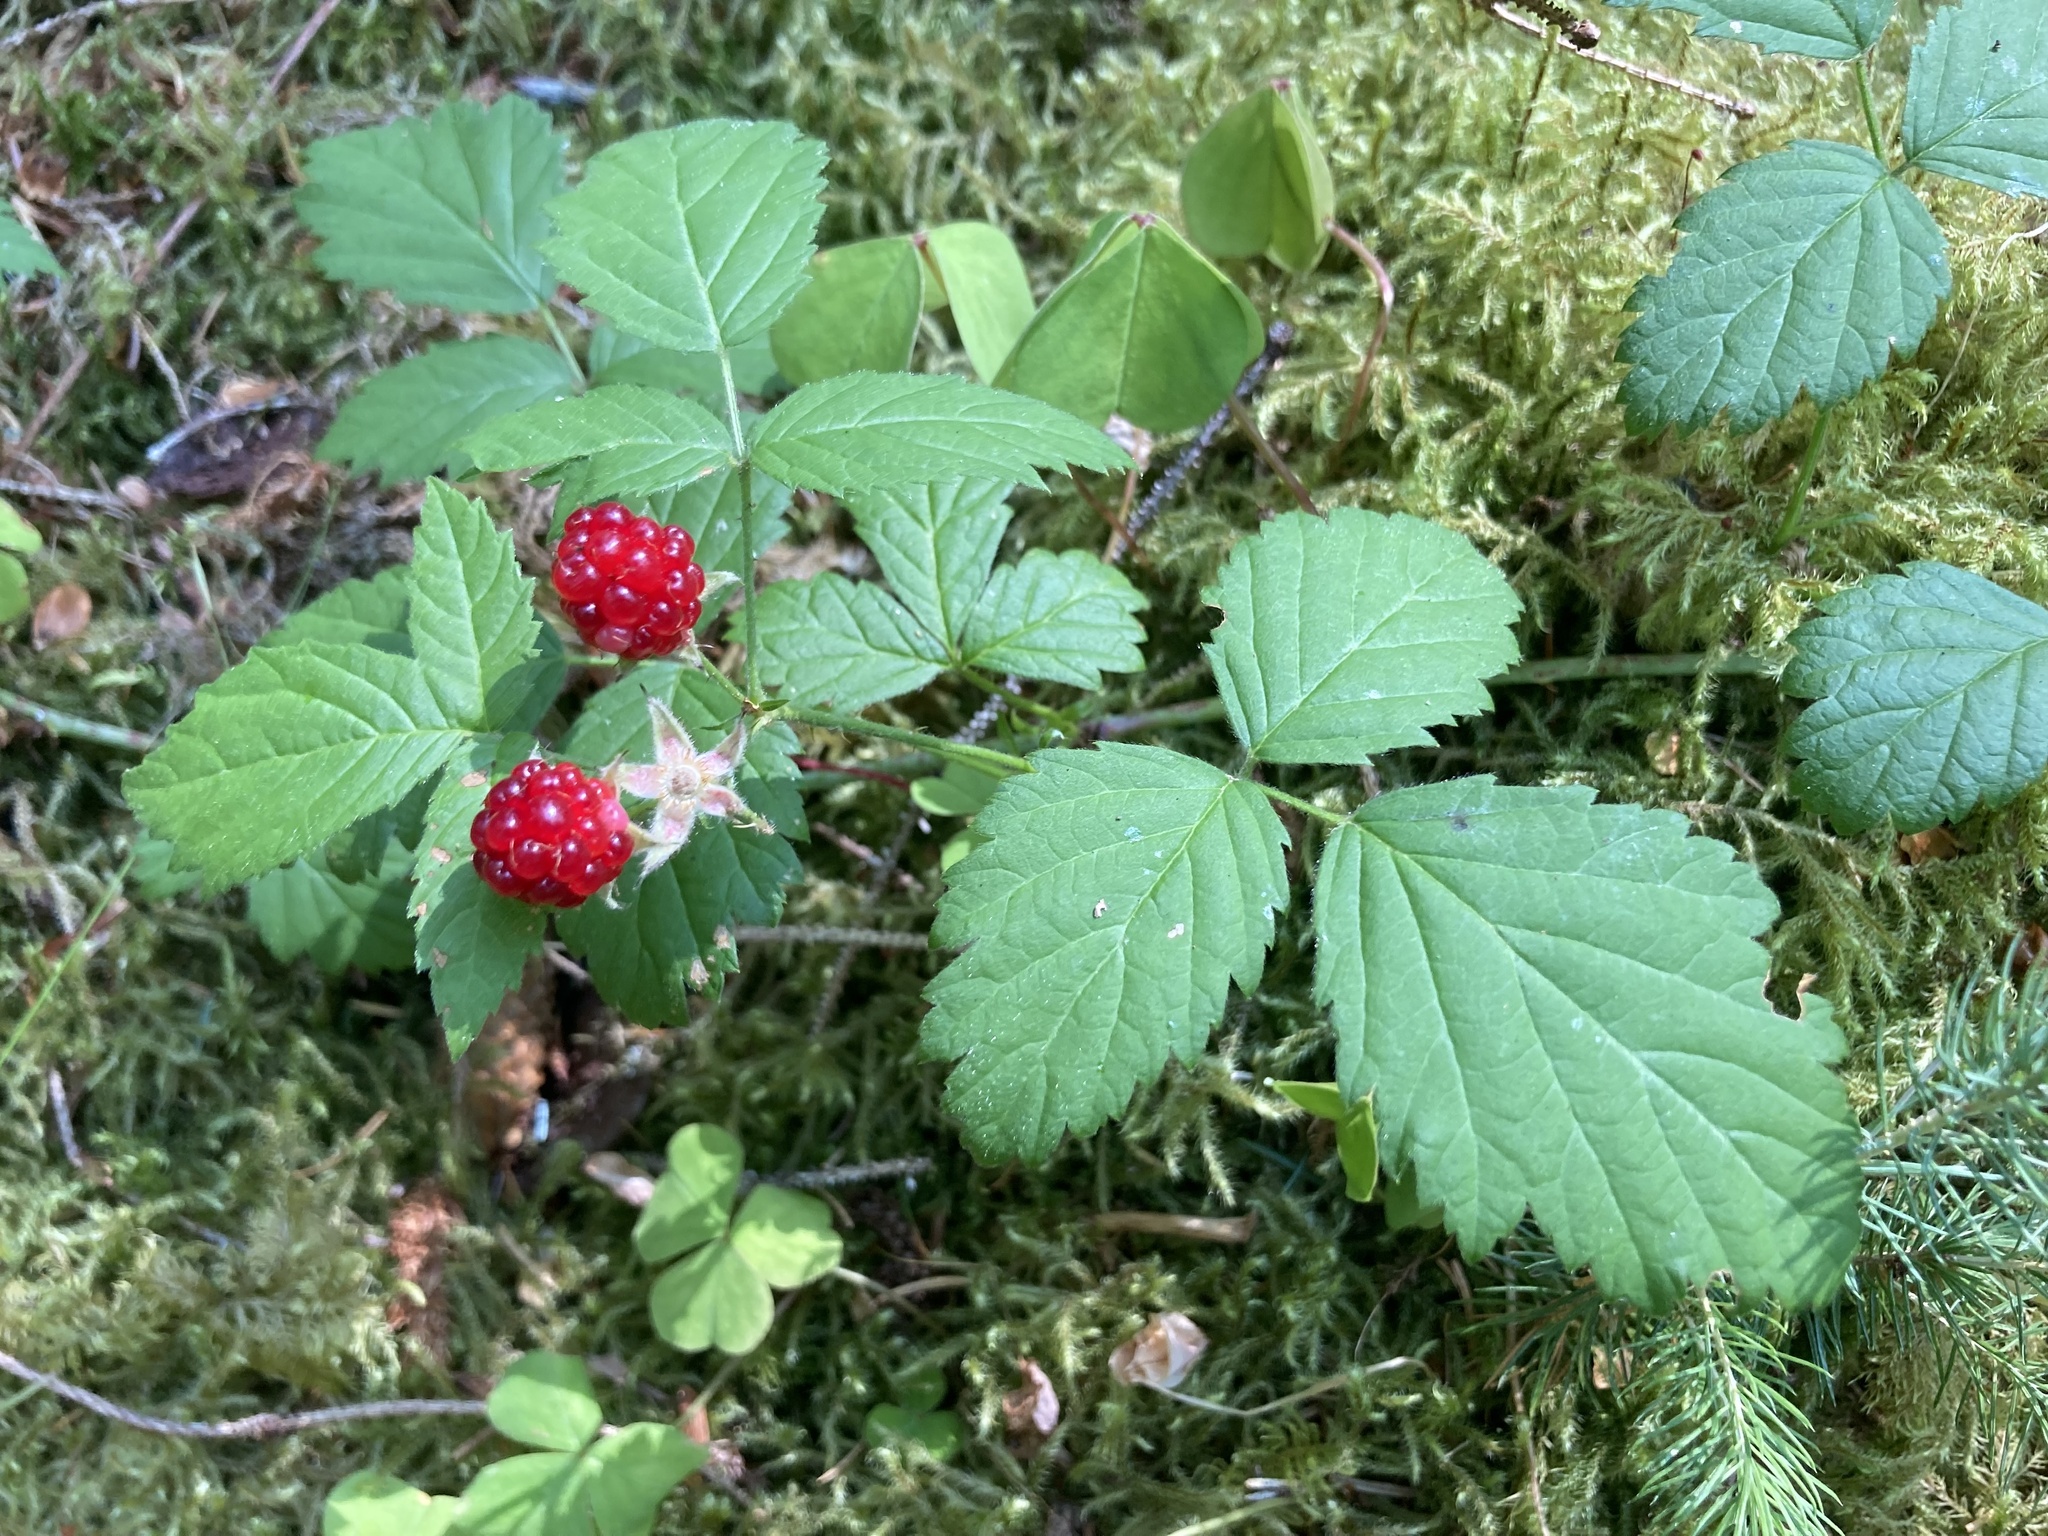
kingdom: Plantae
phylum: Tracheophyta
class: Magnoliopsida
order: Rosales
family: Rosaceae
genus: Rubus
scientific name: Rubus ursinus
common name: Pacific blackberry
